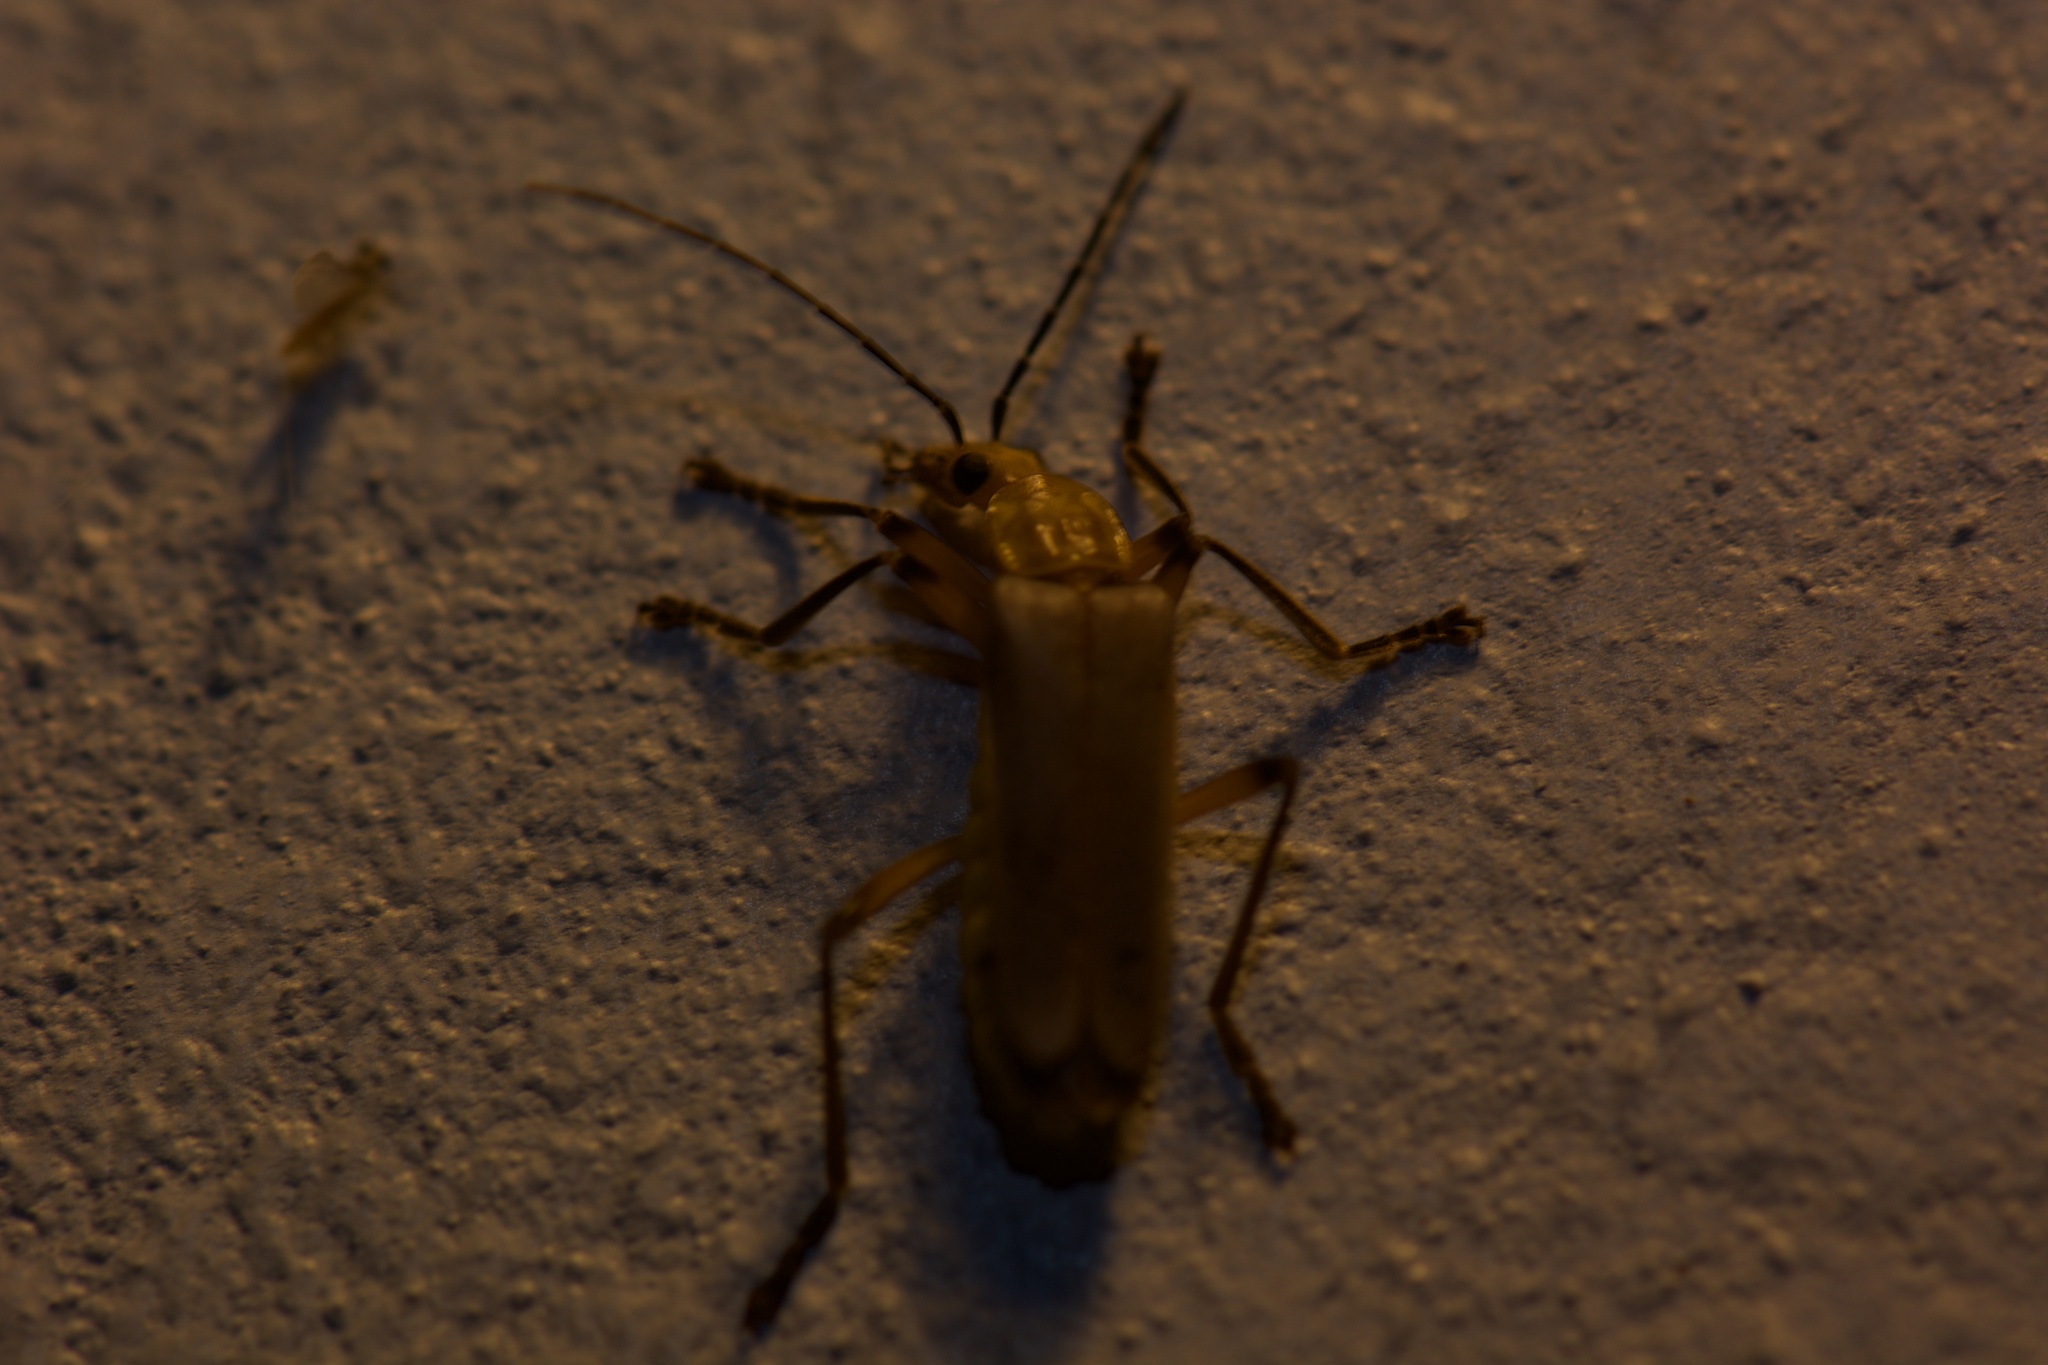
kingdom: Animalia
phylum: Arthropoda
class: Insecta
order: Coleoptera
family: Cantharidae
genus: Chauliognathus
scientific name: Chauliognathus
